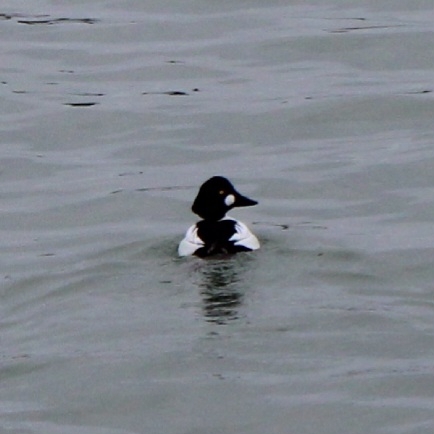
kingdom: Animalia
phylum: Chordata
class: Aves
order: Anseriformes
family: Anatidae
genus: Bucephala
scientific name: Bucephala clangula
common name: Common goldeneye
